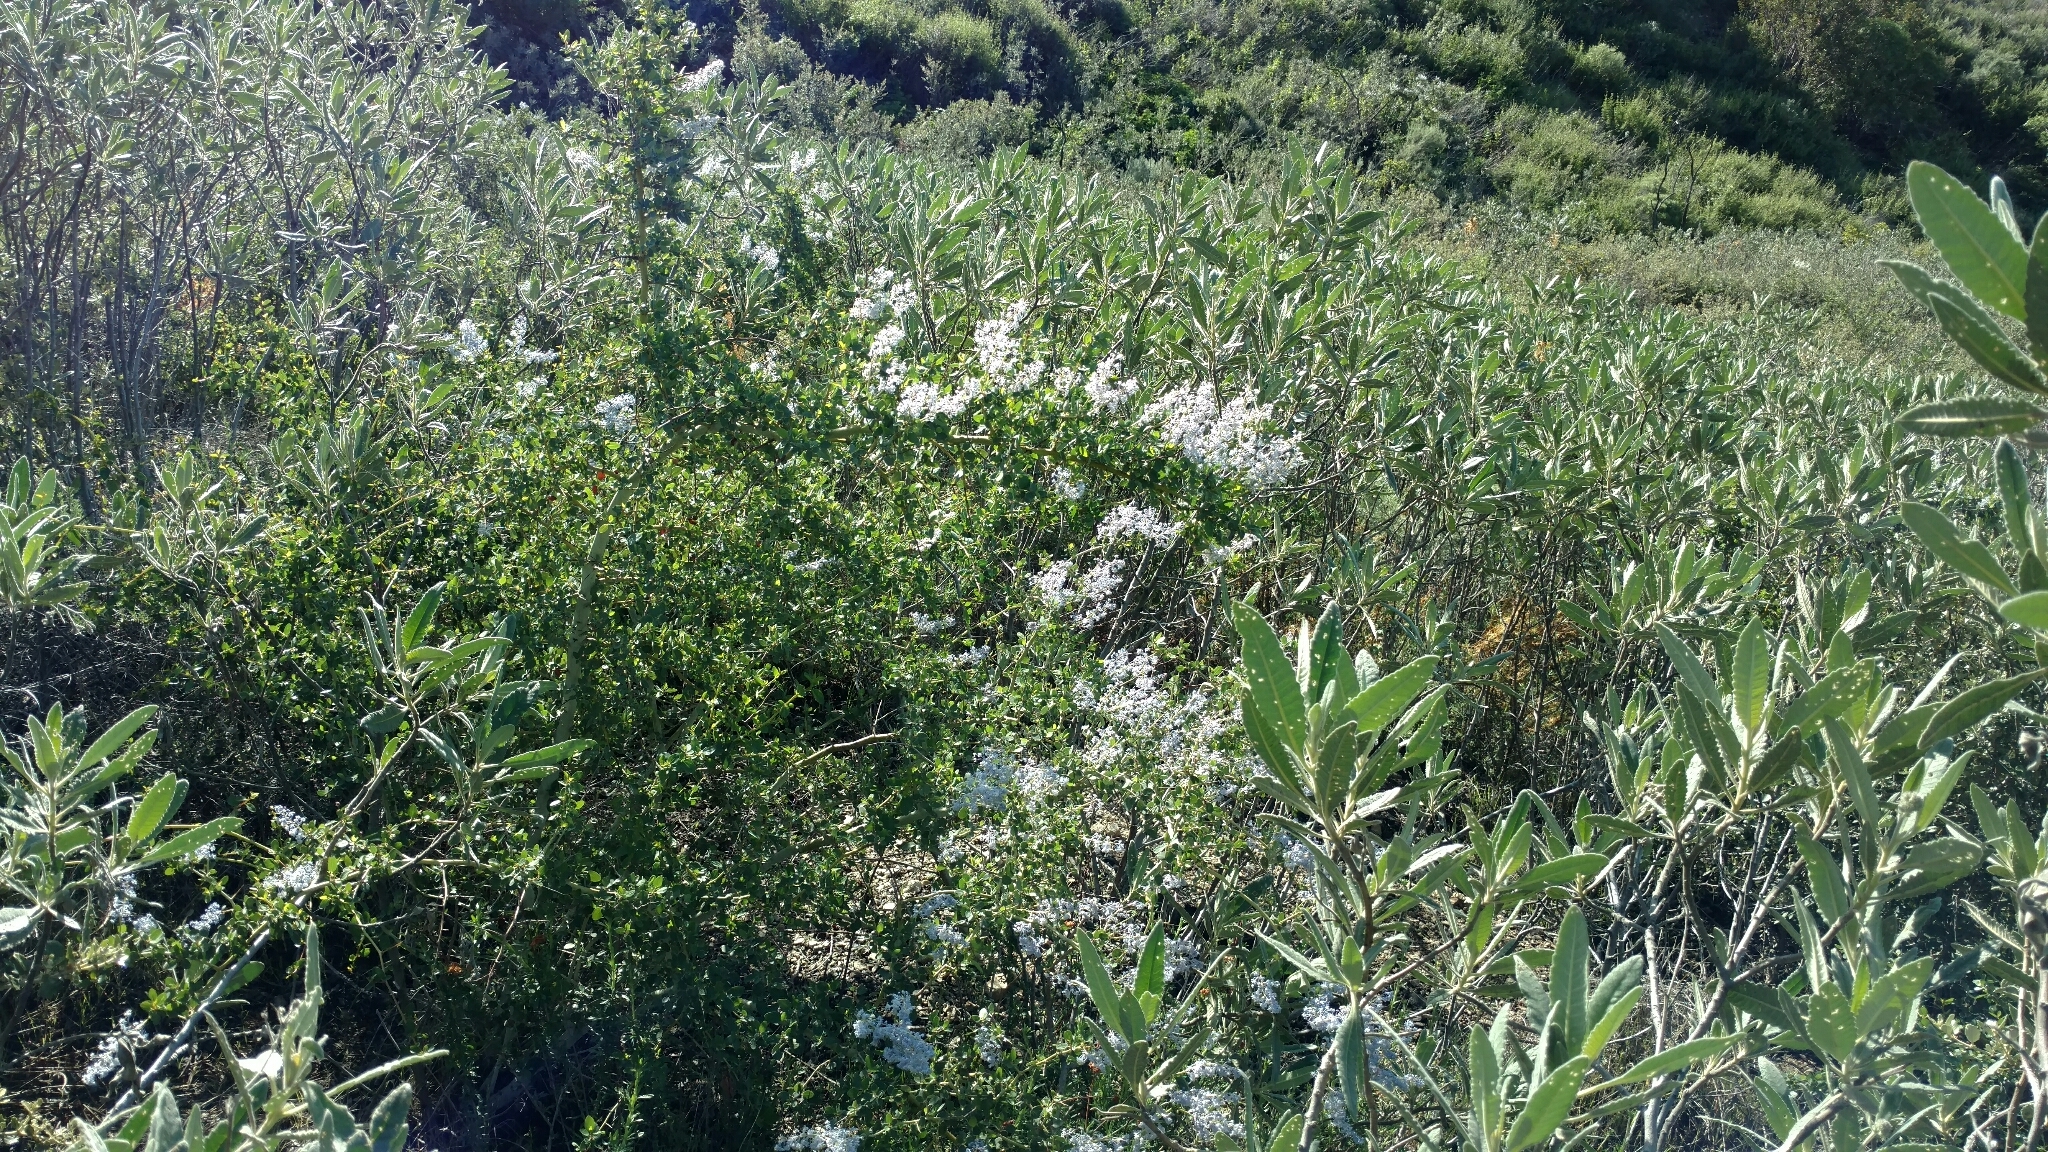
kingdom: Plantae
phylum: Tracheophyta
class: Magnoliopsida
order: Rosales
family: Rhamnaceae
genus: Ceanothus
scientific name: Ceanothus leucodermis
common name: Chaparral whitethorn
